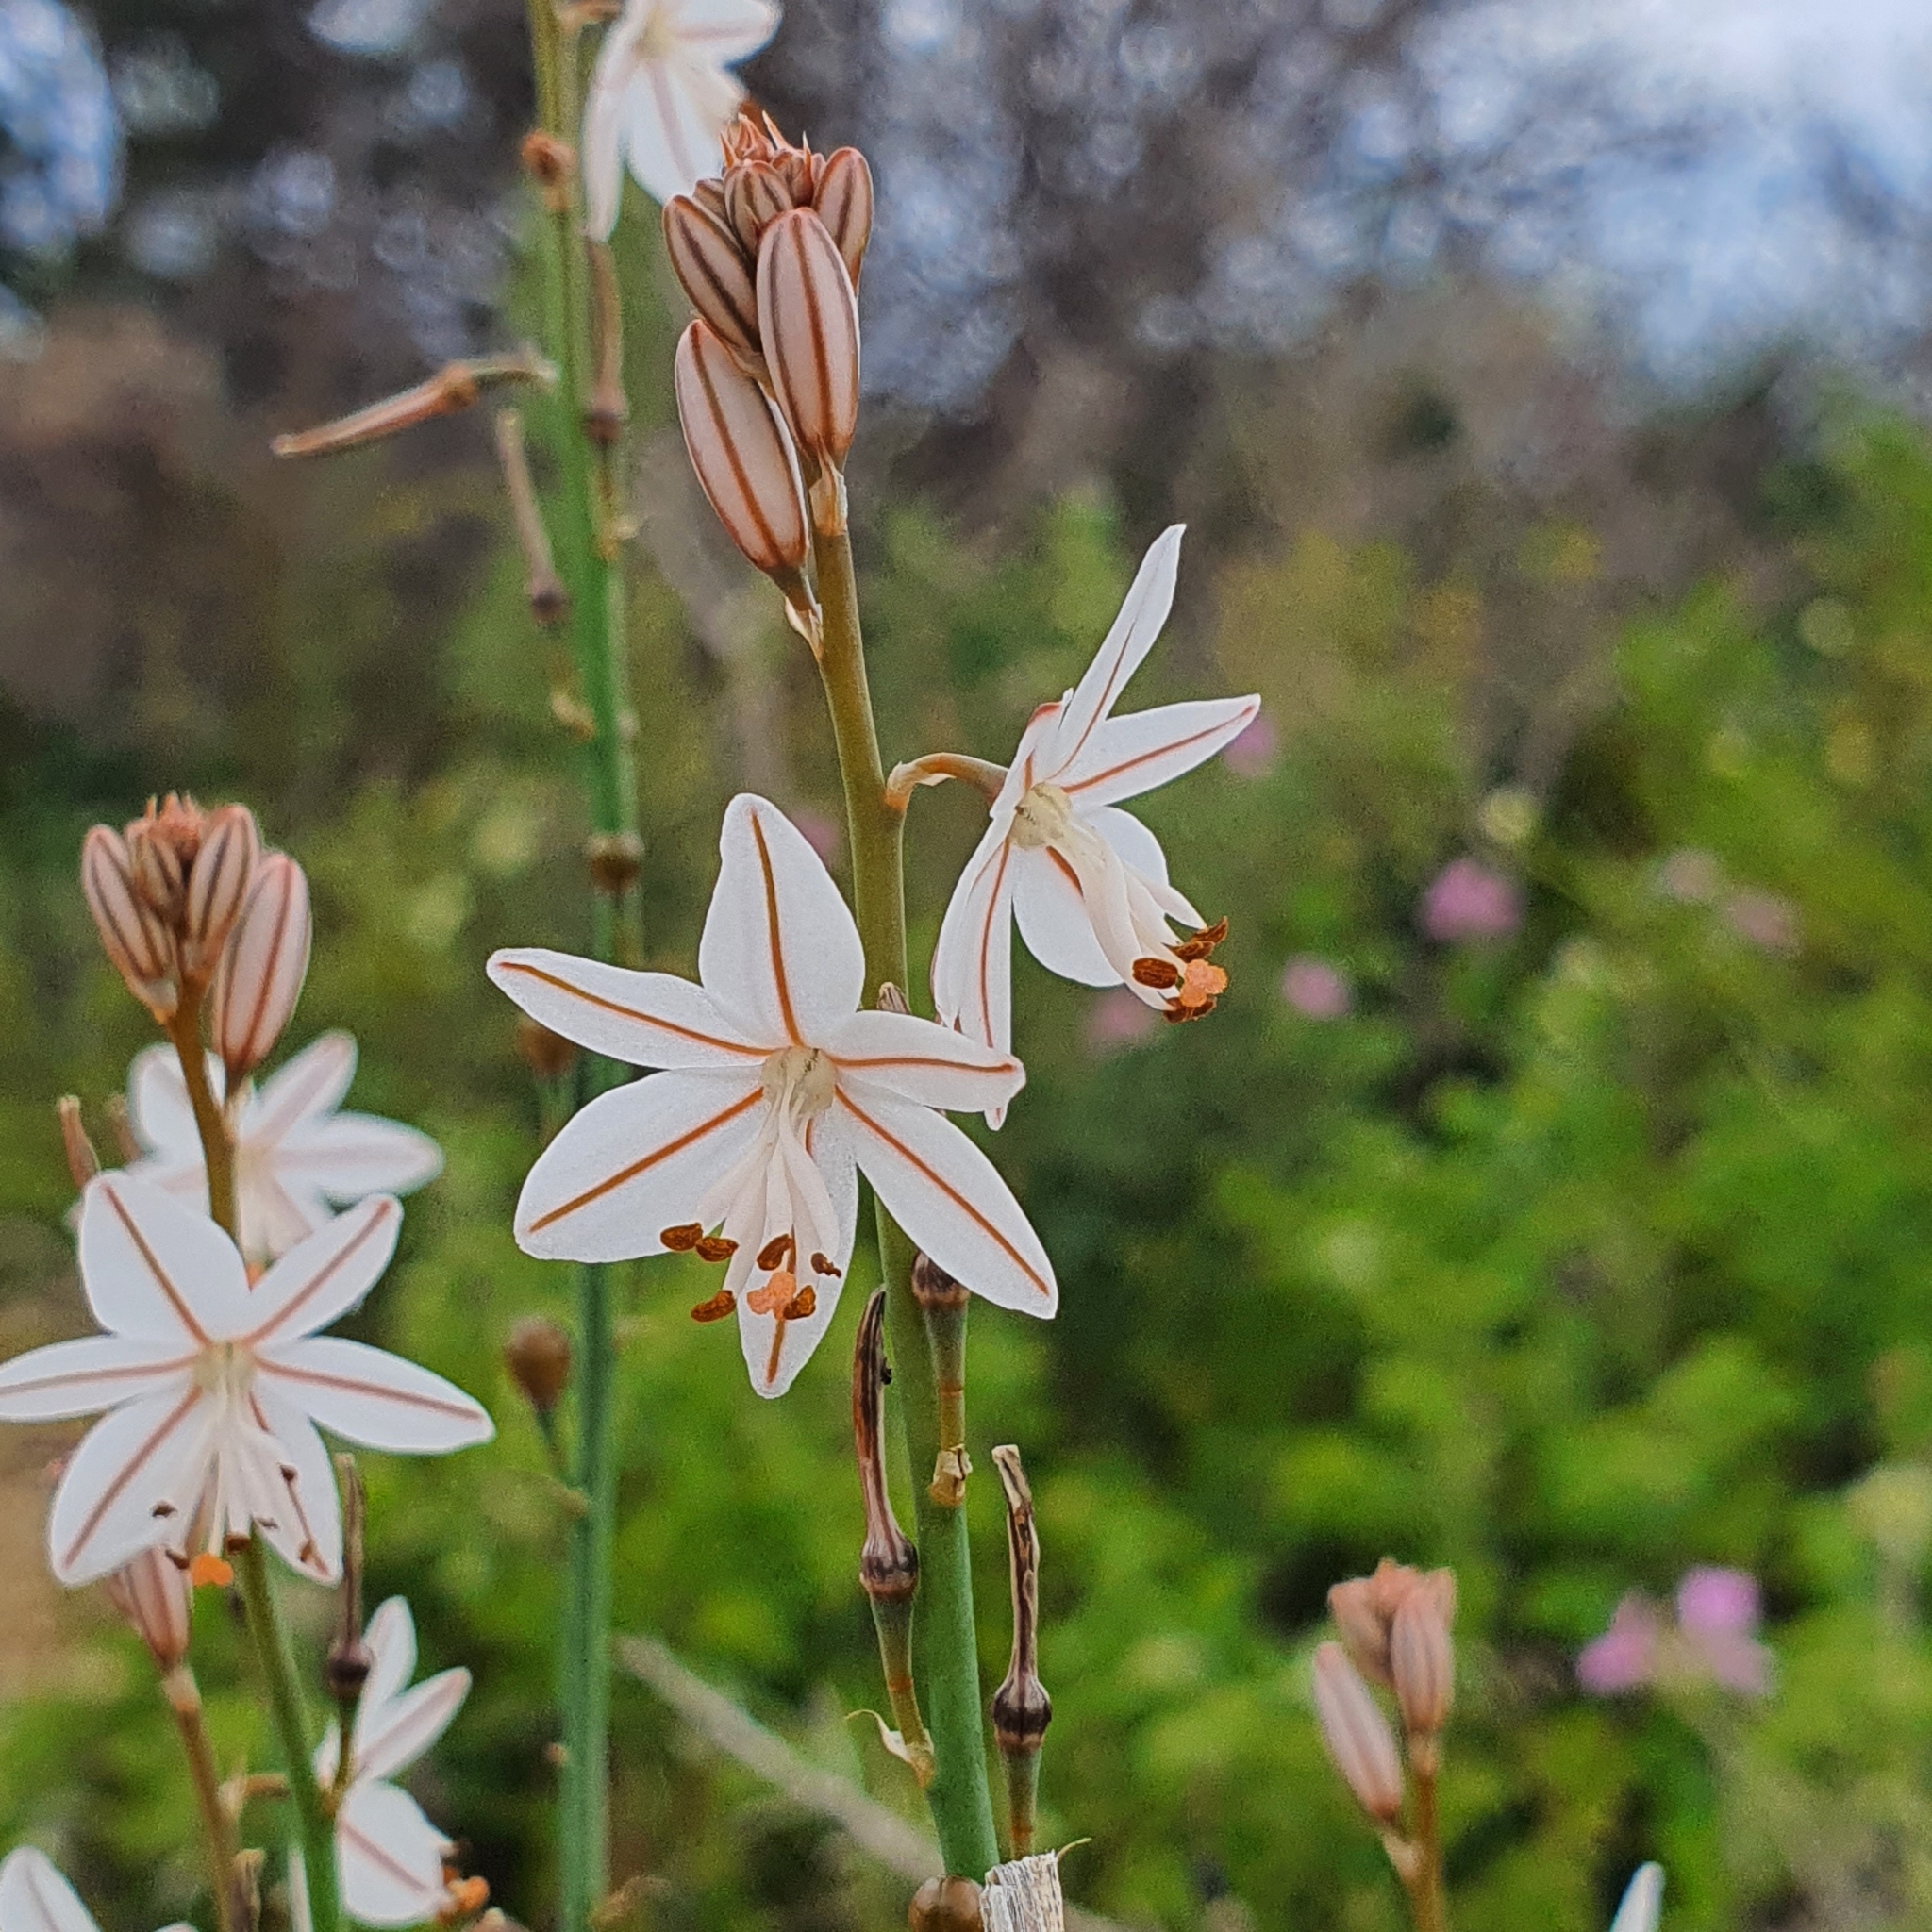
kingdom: Plantae
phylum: Tracheophyta
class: Liliopsida
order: Asparagales
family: Asphodelaceae
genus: Asphodelus
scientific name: Asphodelus fistulosus
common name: Onionweed
